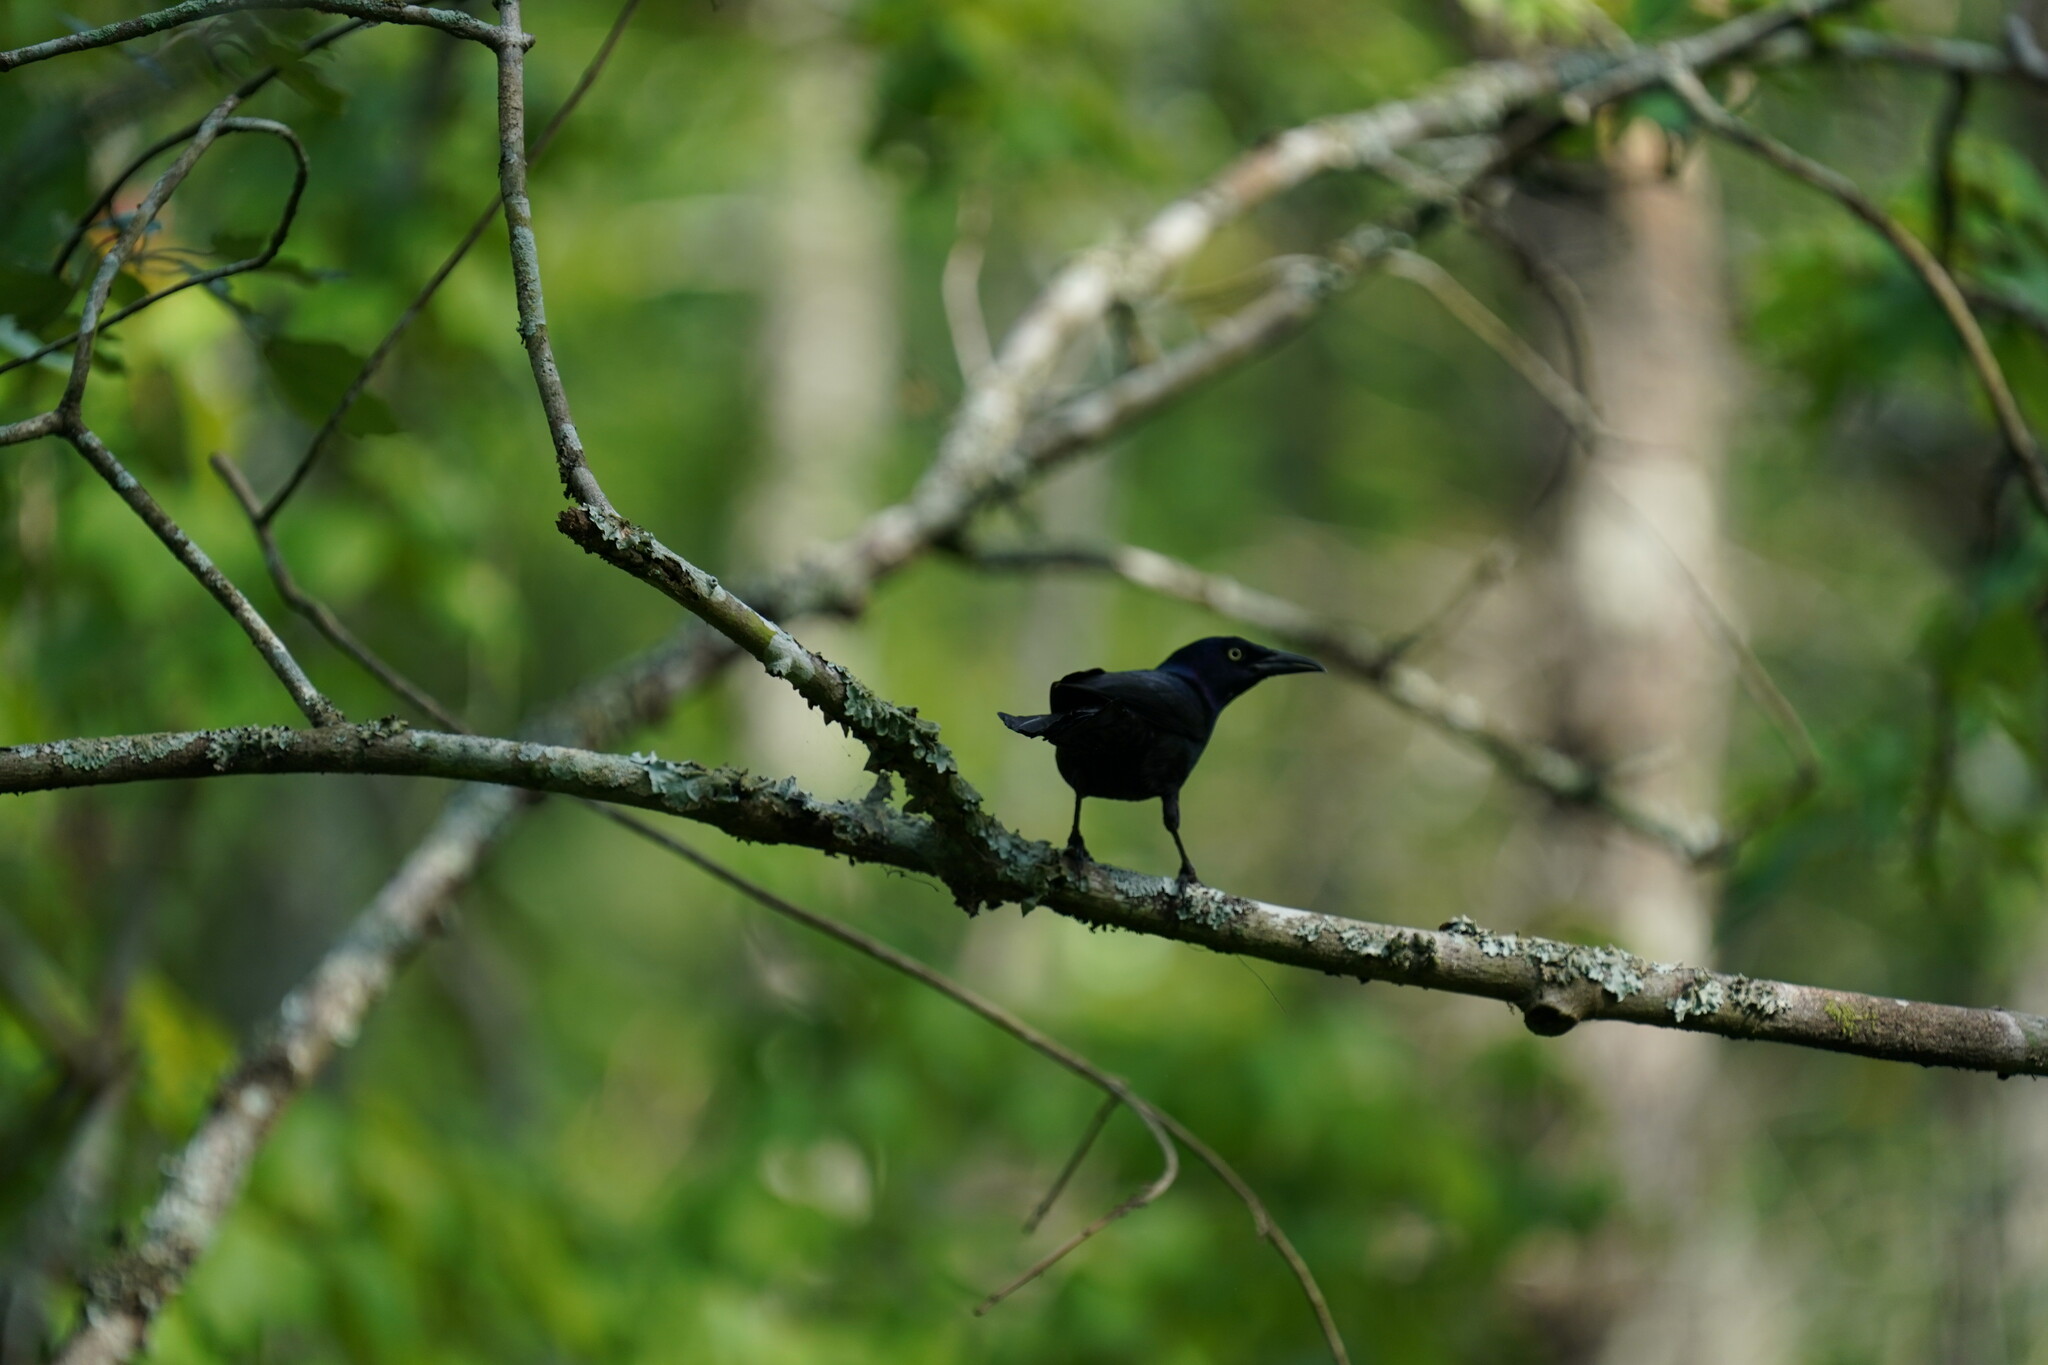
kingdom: Animalia
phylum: Chordata
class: Aves
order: Passeriformes
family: Icteridae
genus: Quiscalus
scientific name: Quiscalus quiscula
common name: Common grackle
